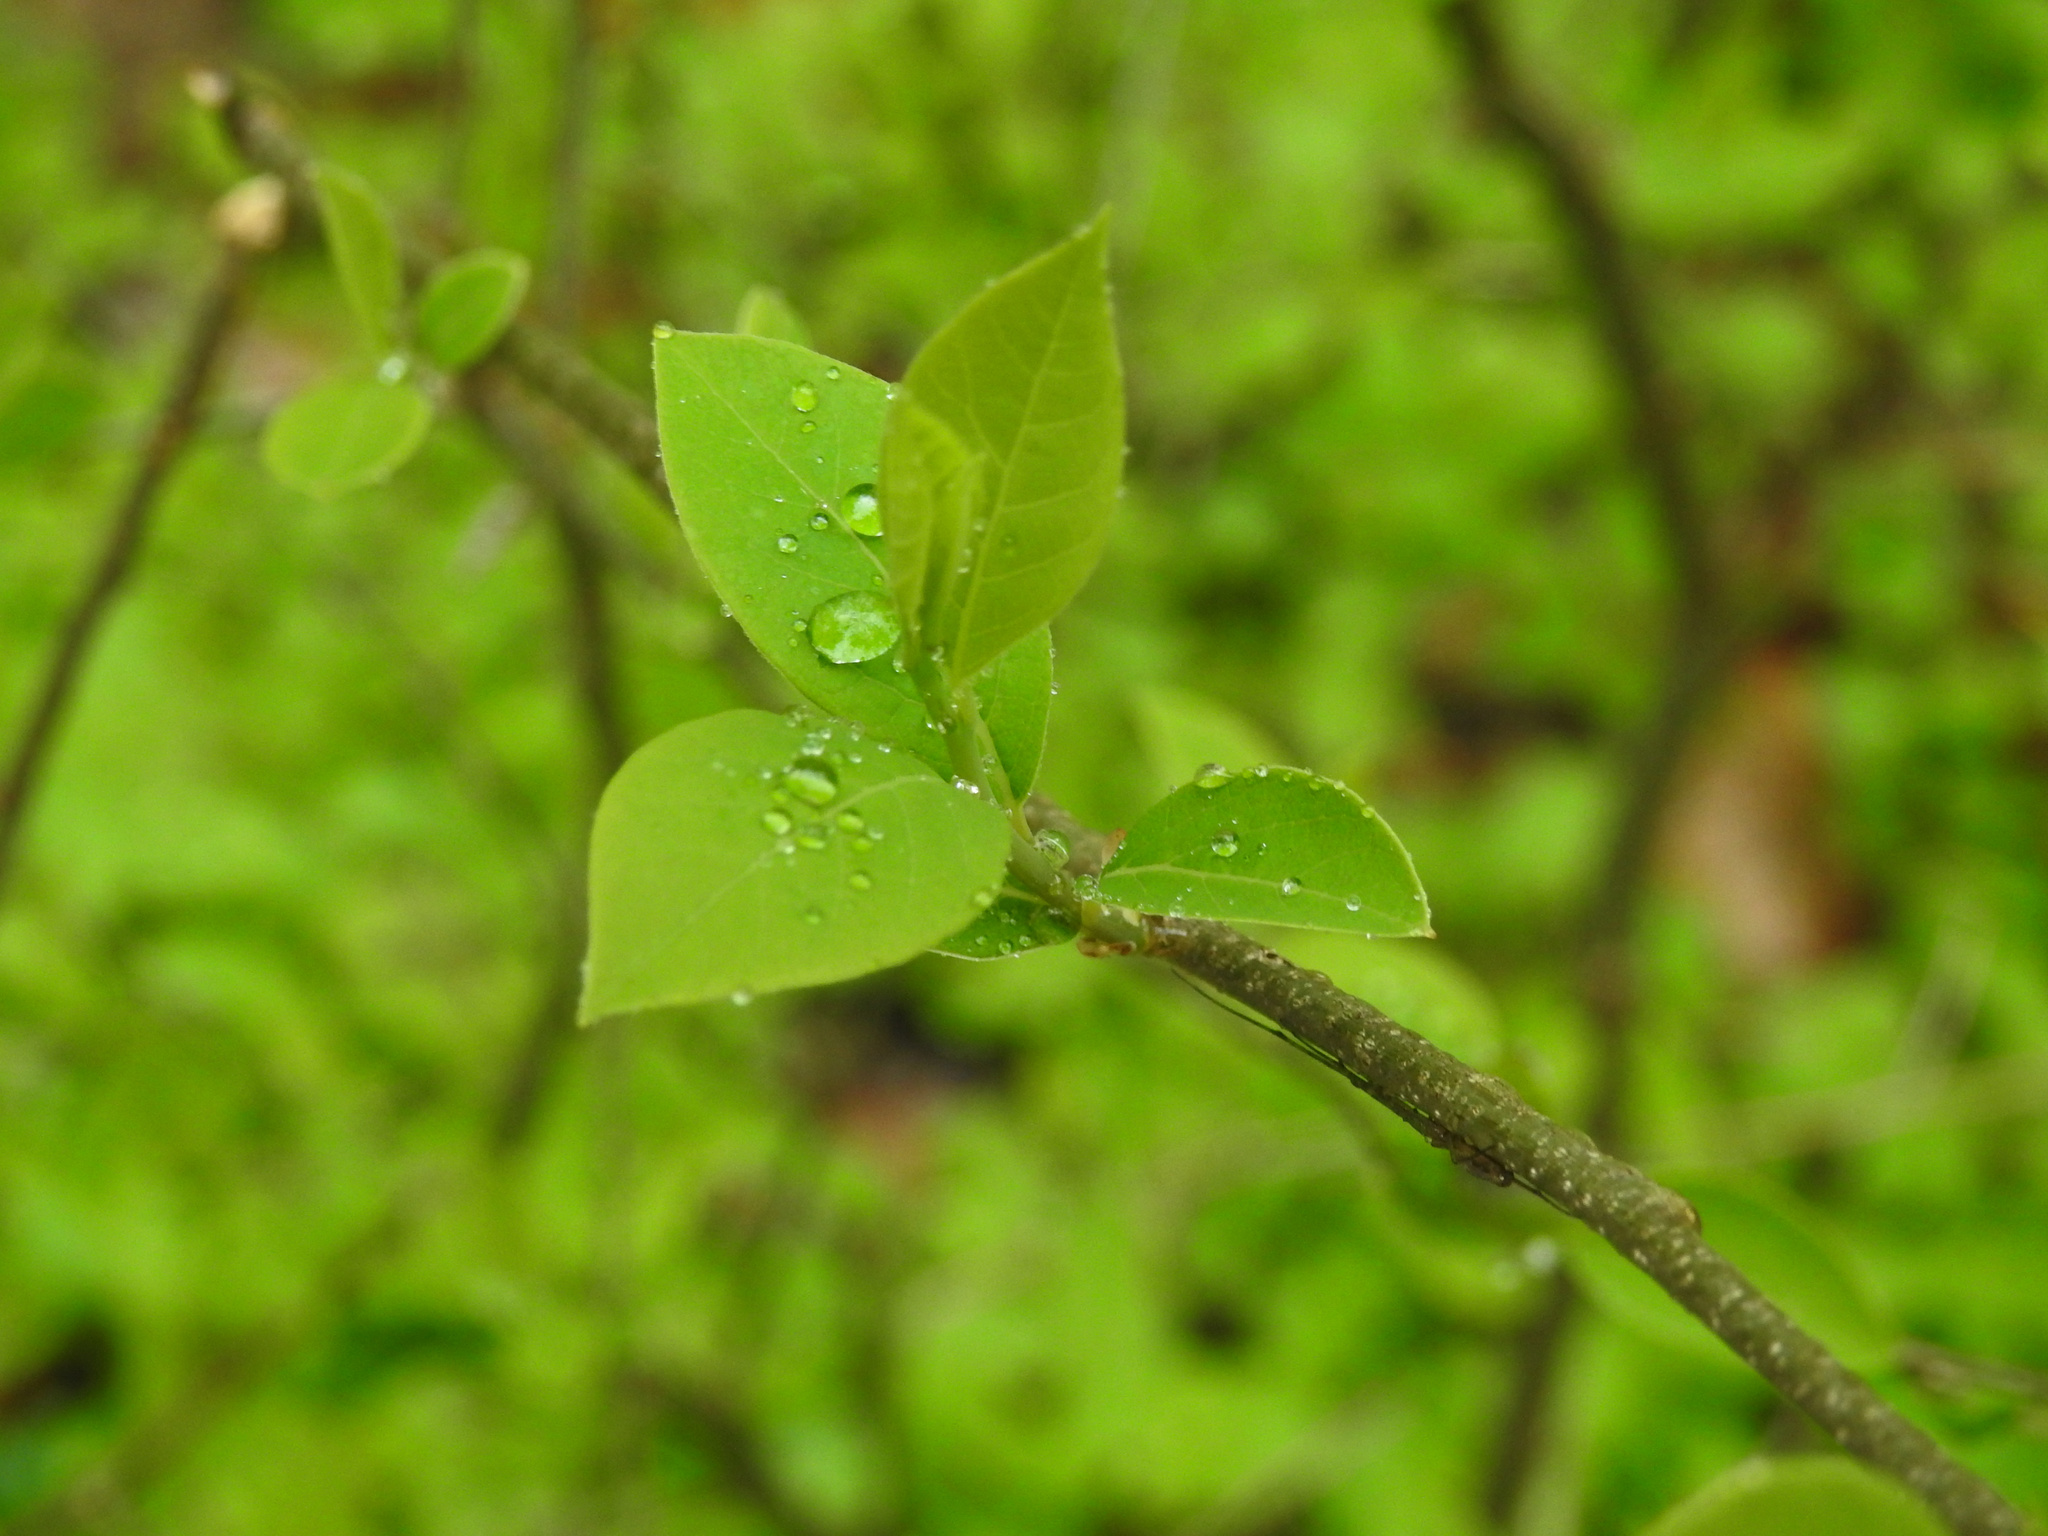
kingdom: Plantae
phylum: Tracheophyta
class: Magnoliopsida
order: Laurales
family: Lauraceae
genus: Lindera
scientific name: Lindera benzoin
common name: Spicebush
